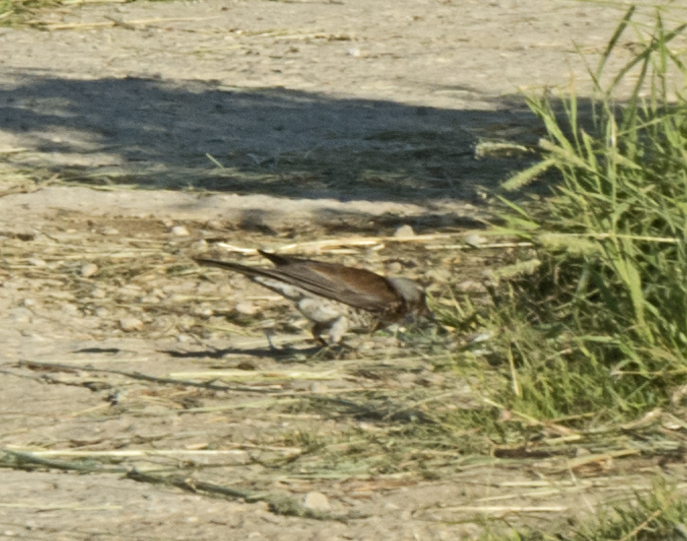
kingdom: Animalia
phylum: Chordata
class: Aves
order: Passeriformes
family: Turdidae
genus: Turdus
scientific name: Turdus pilaris
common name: Fieldfare
